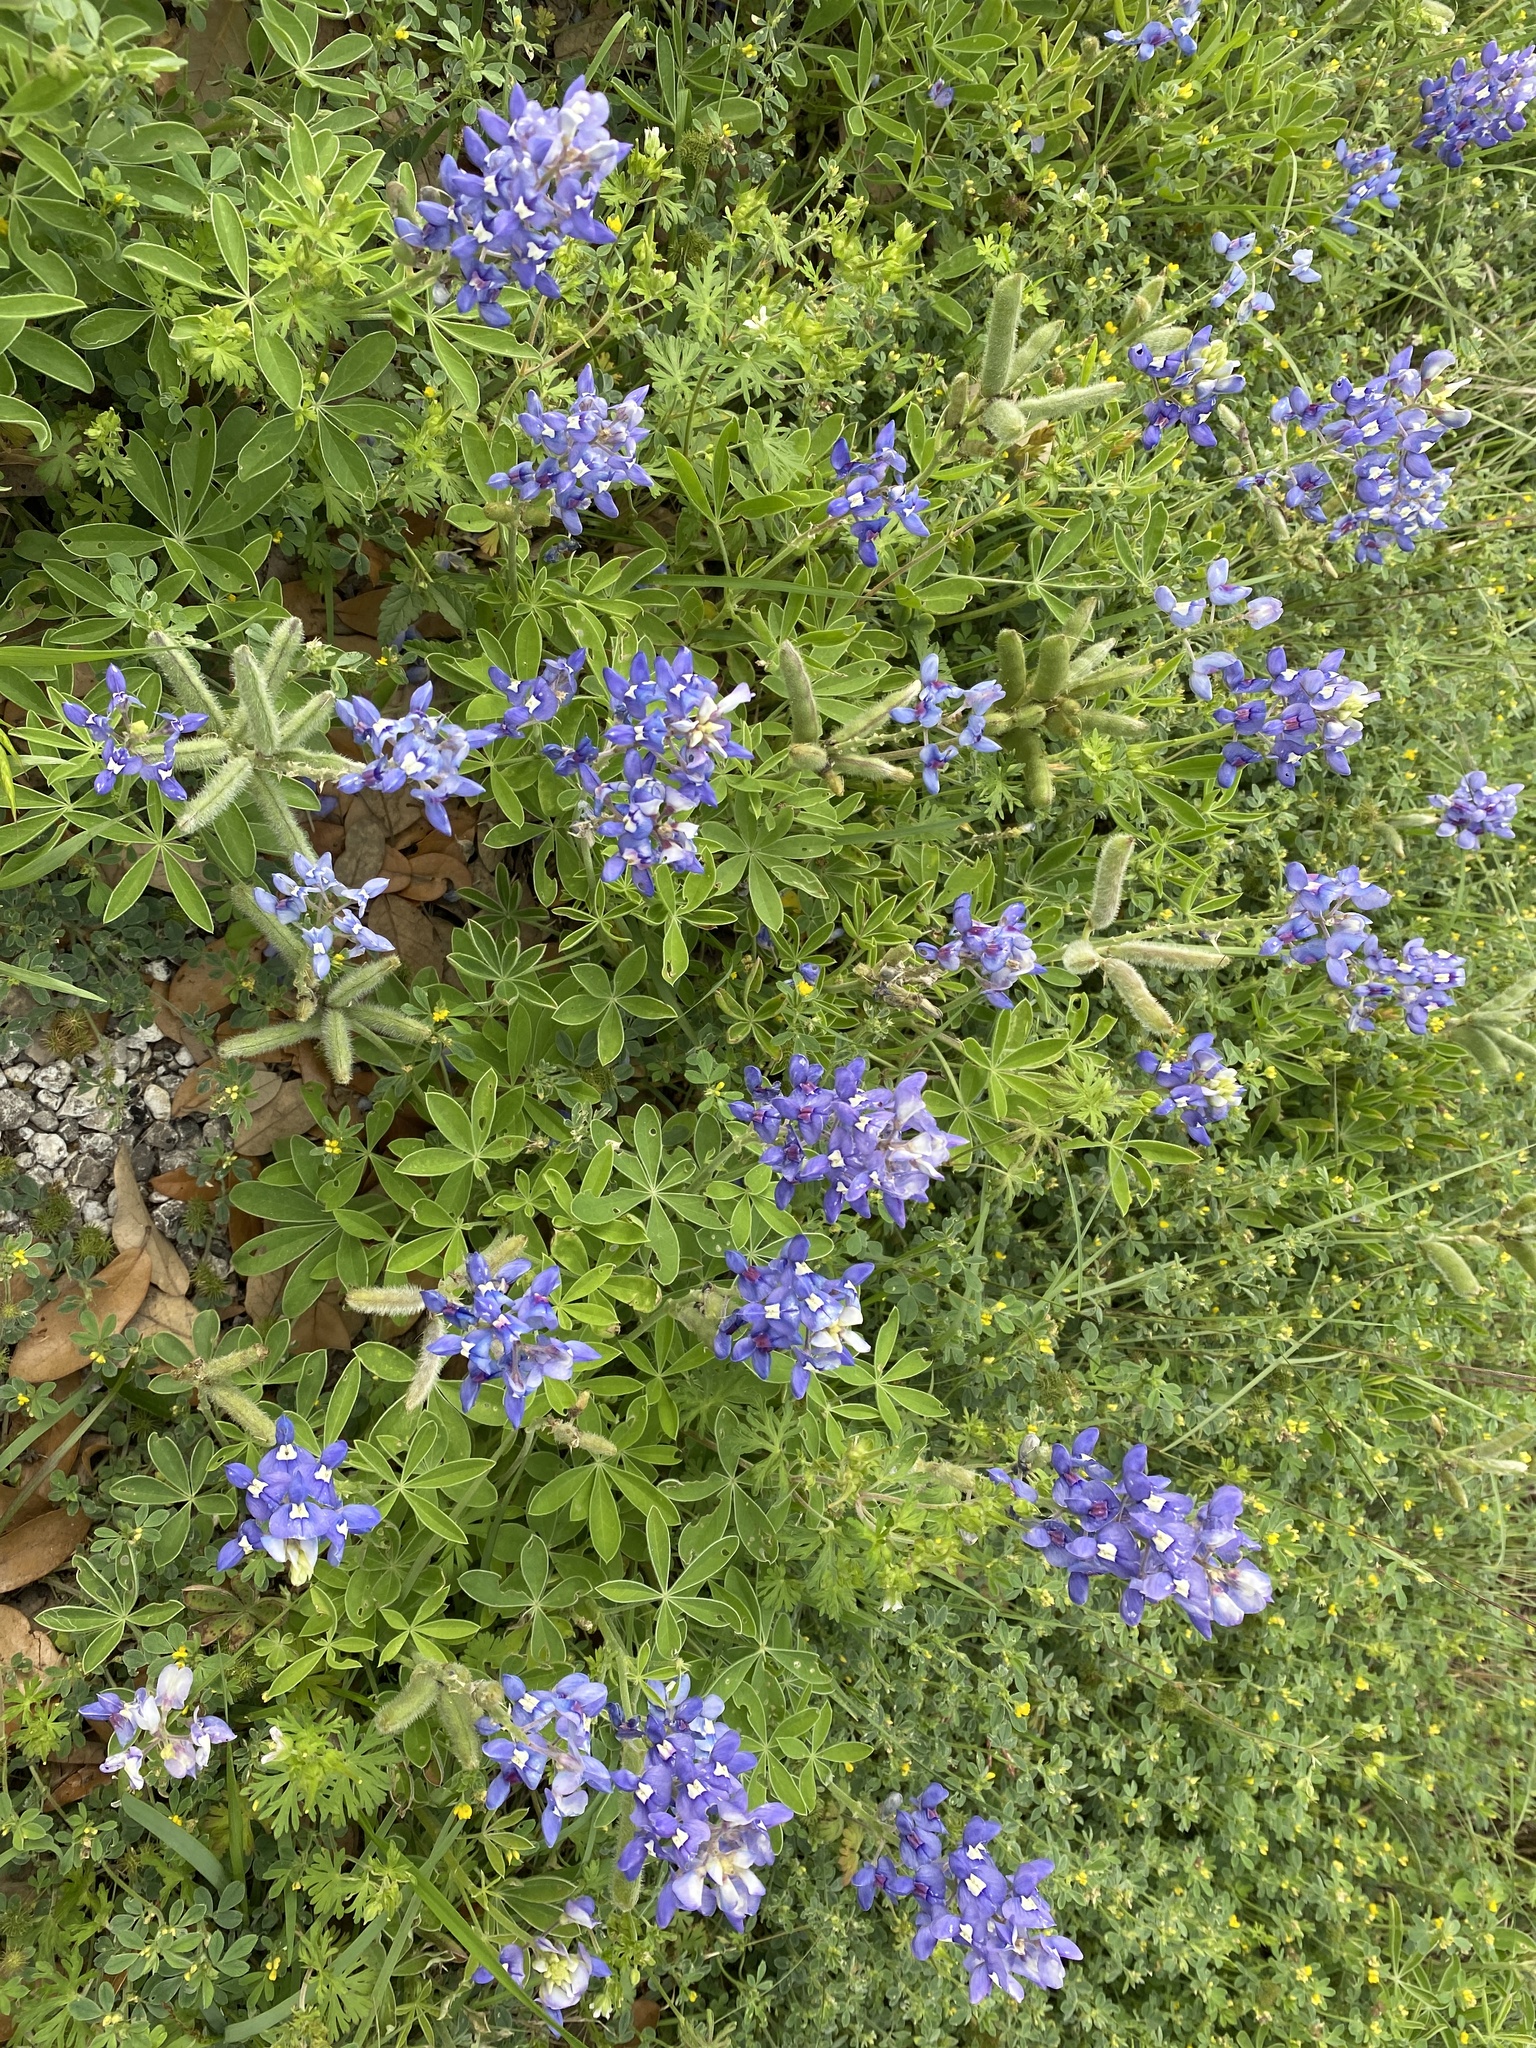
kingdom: Plantae
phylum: Tracheophyta
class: Magnoliopsida
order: Fabales
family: Fabaceae
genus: Lupinus
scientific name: Lupinus texensis
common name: Texas bluebonnet
